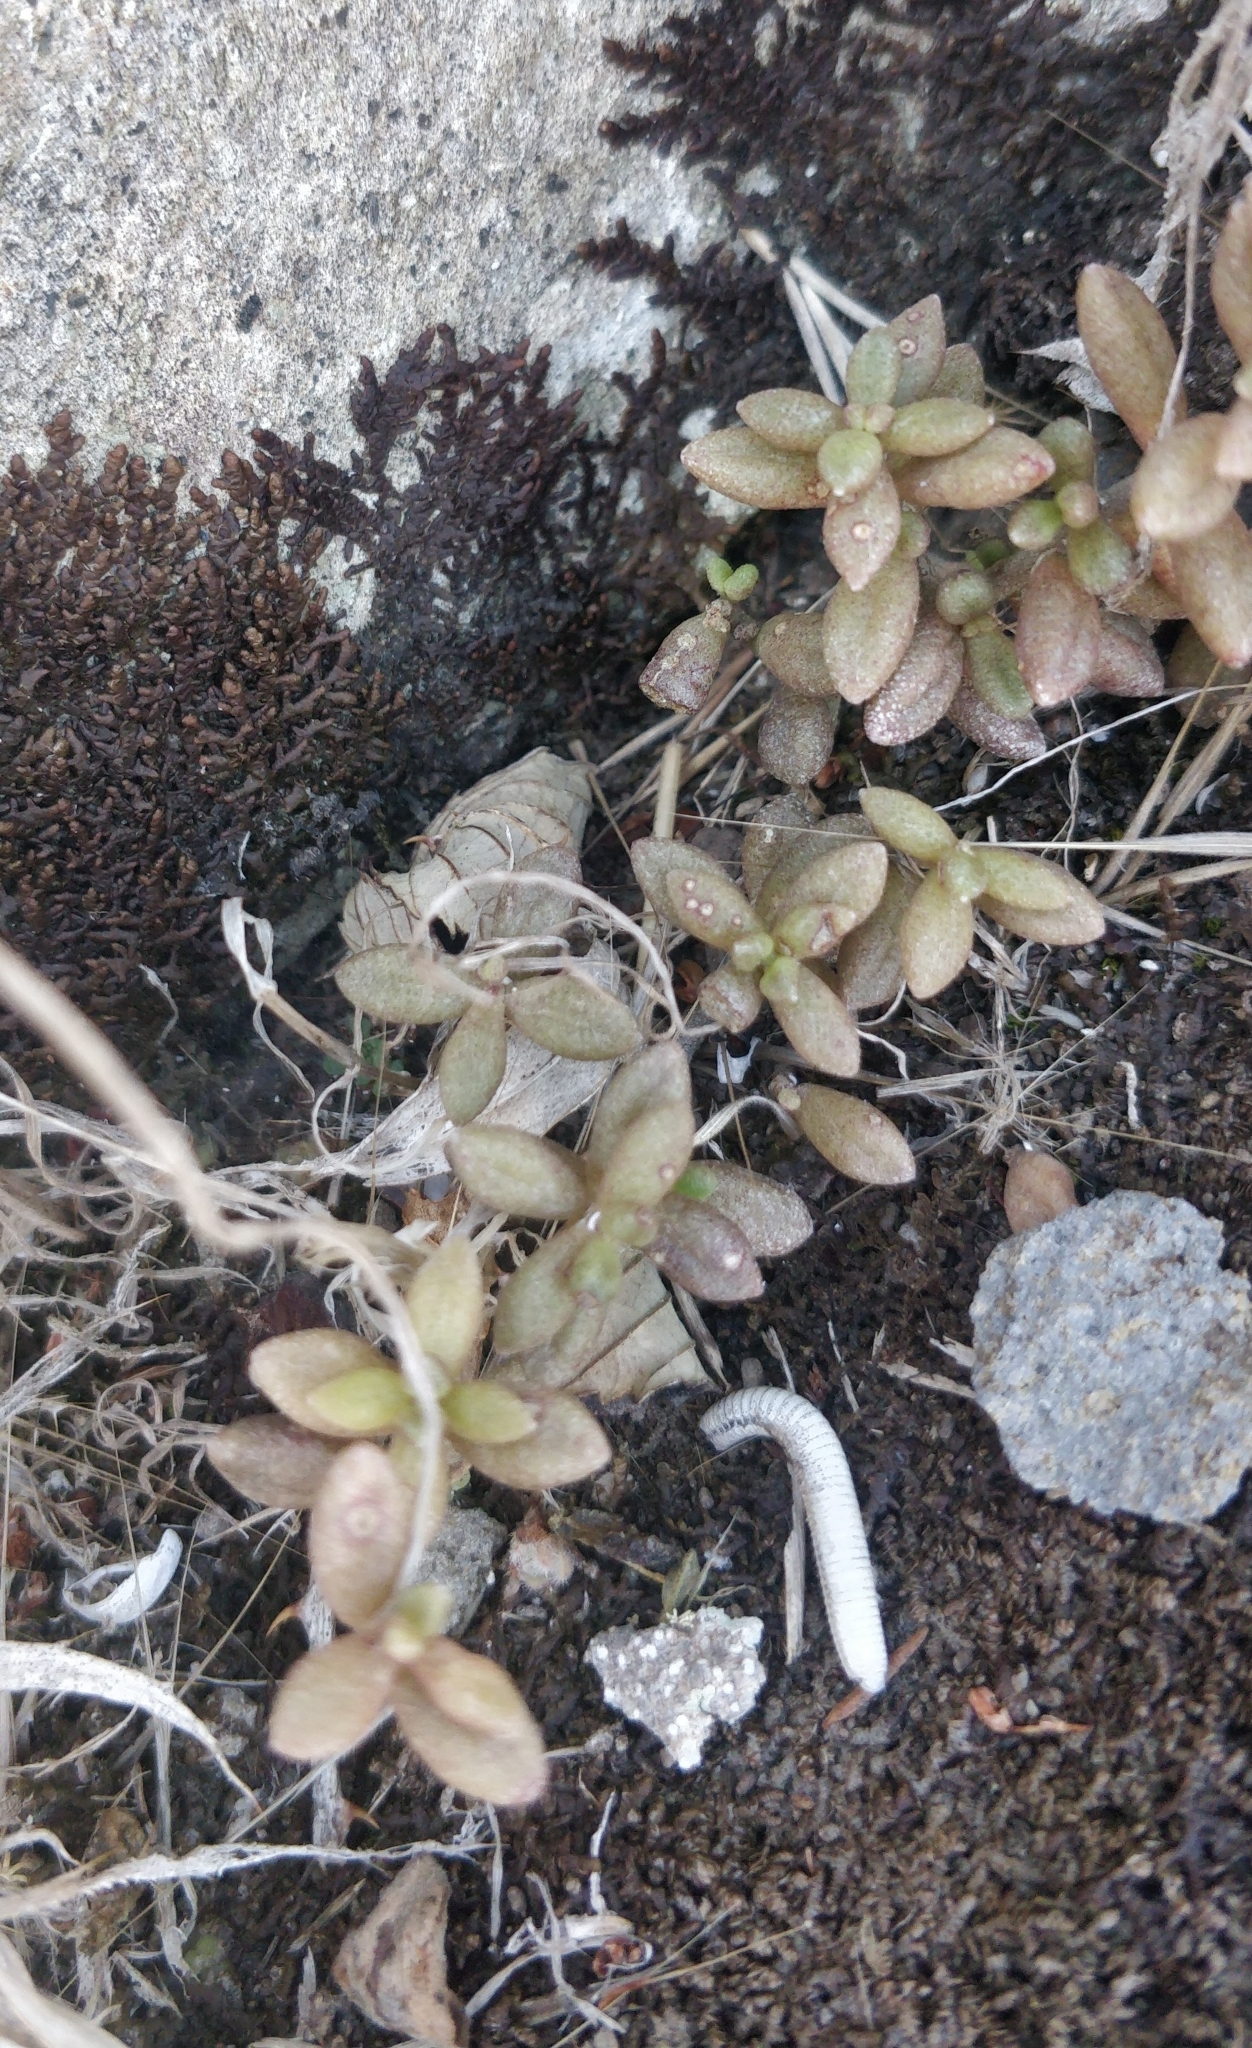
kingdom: Plantae
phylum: Tracheophyta
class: Magnoliopsida
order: Saxifragales
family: Crassulaceae
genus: Monanthes
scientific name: Monanthes laxiflora
